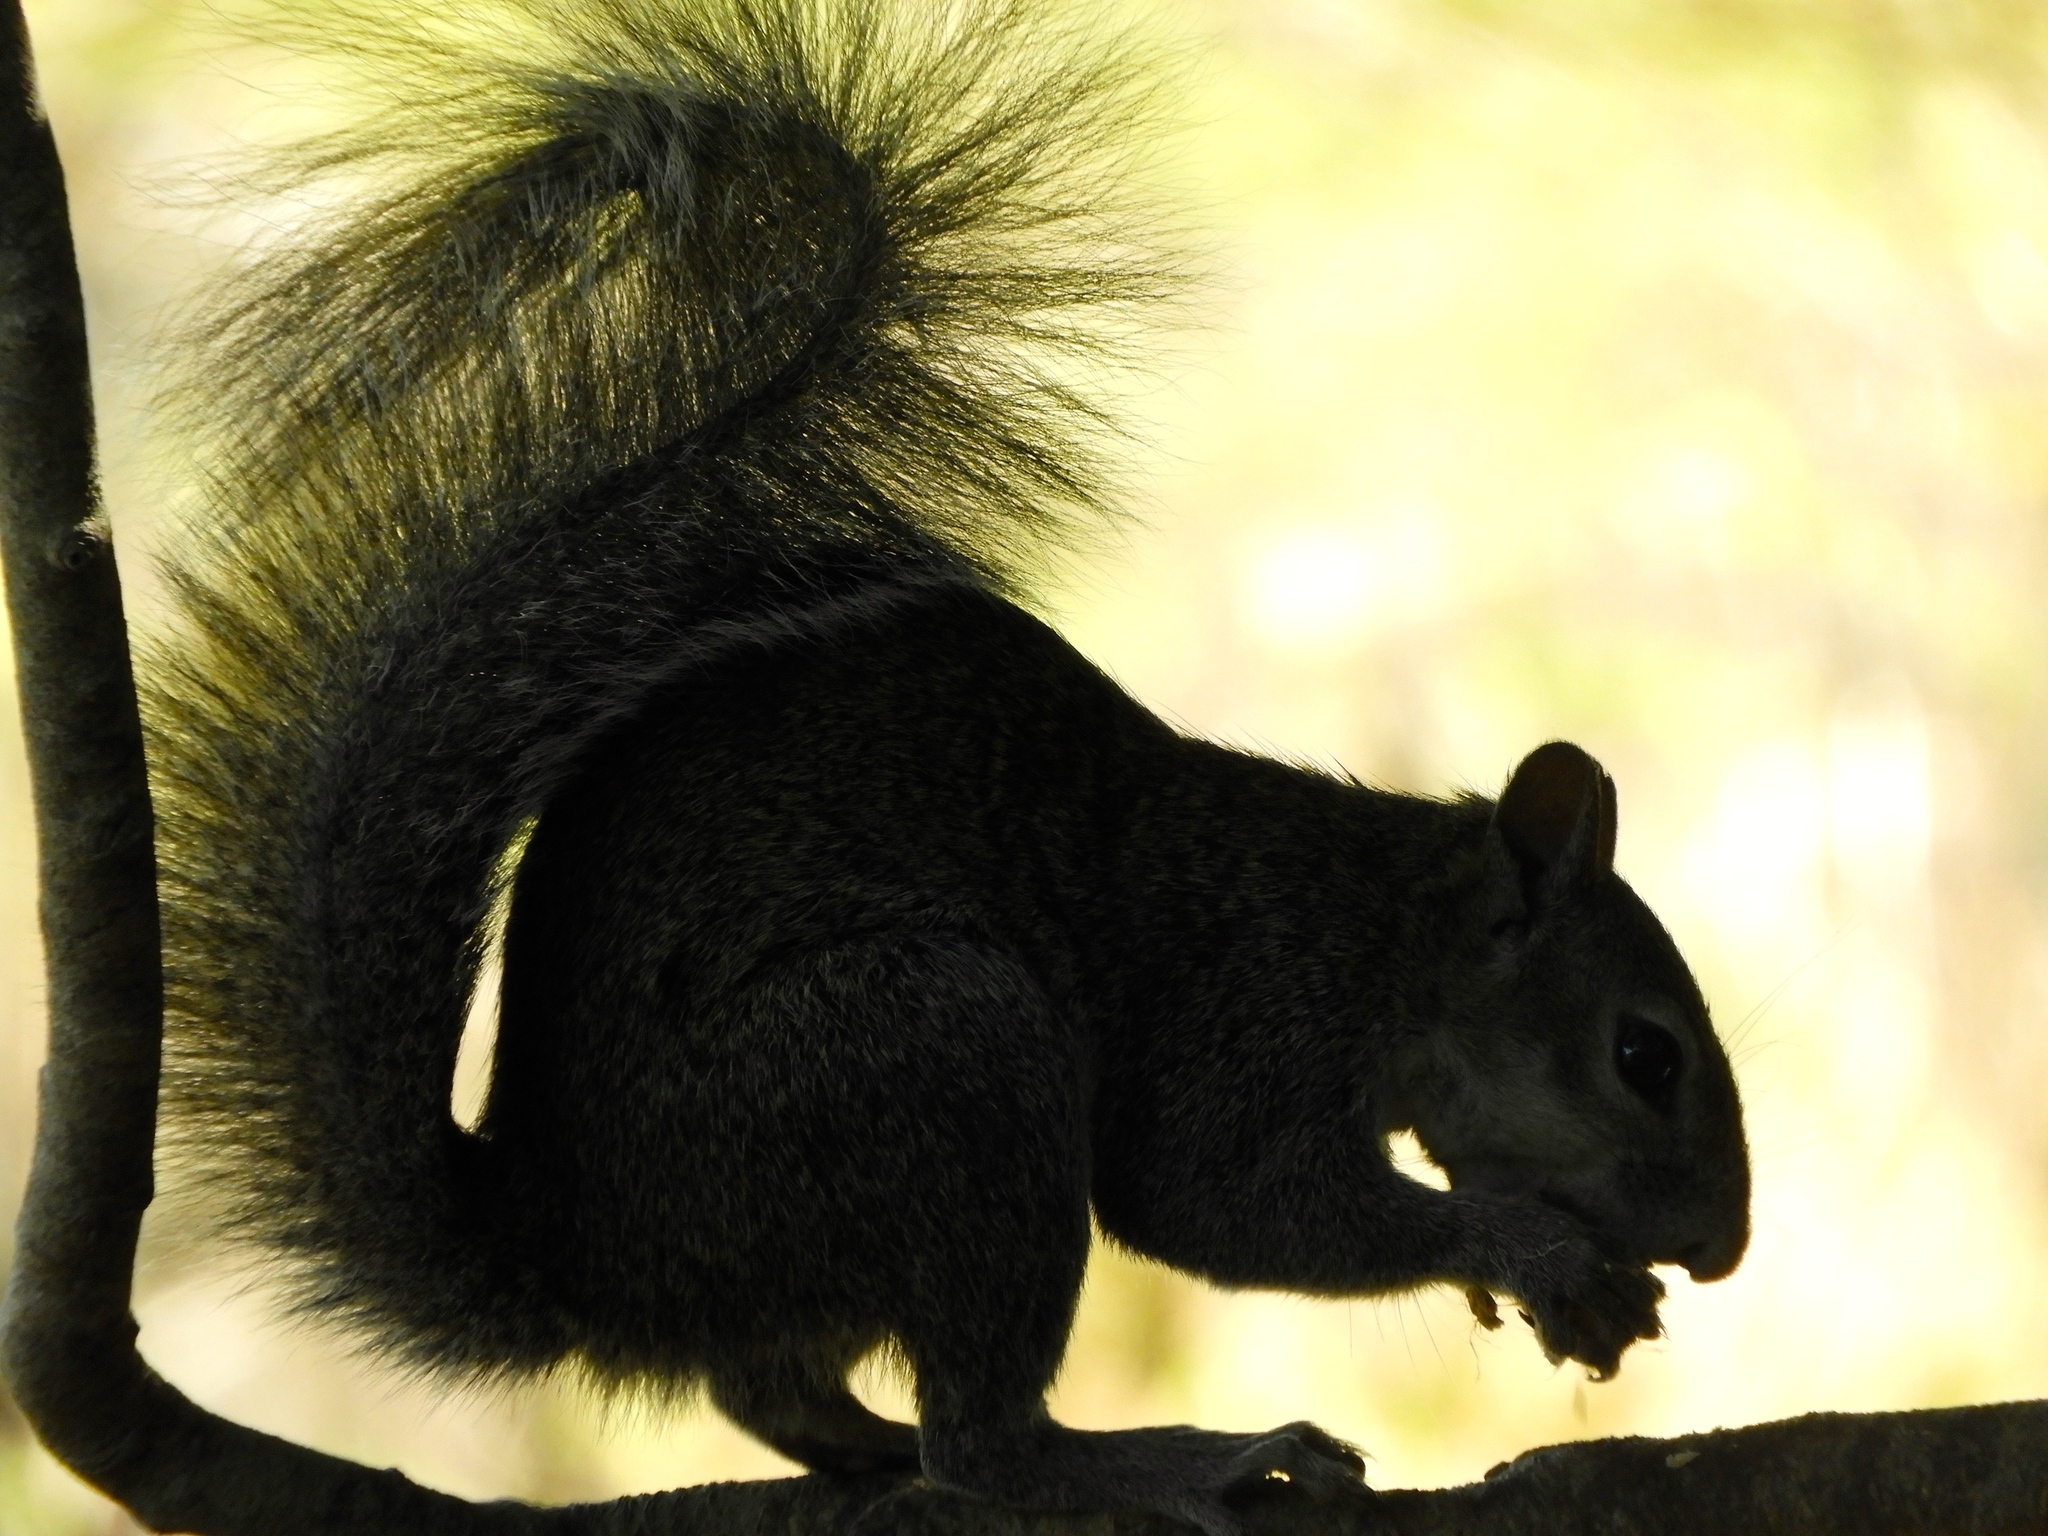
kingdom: Animalia
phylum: Chordata
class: Mammalia
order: Rodentia
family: Sciuridae
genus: Sciurus
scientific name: Sciurus colliaei
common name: Collie's squirrel
